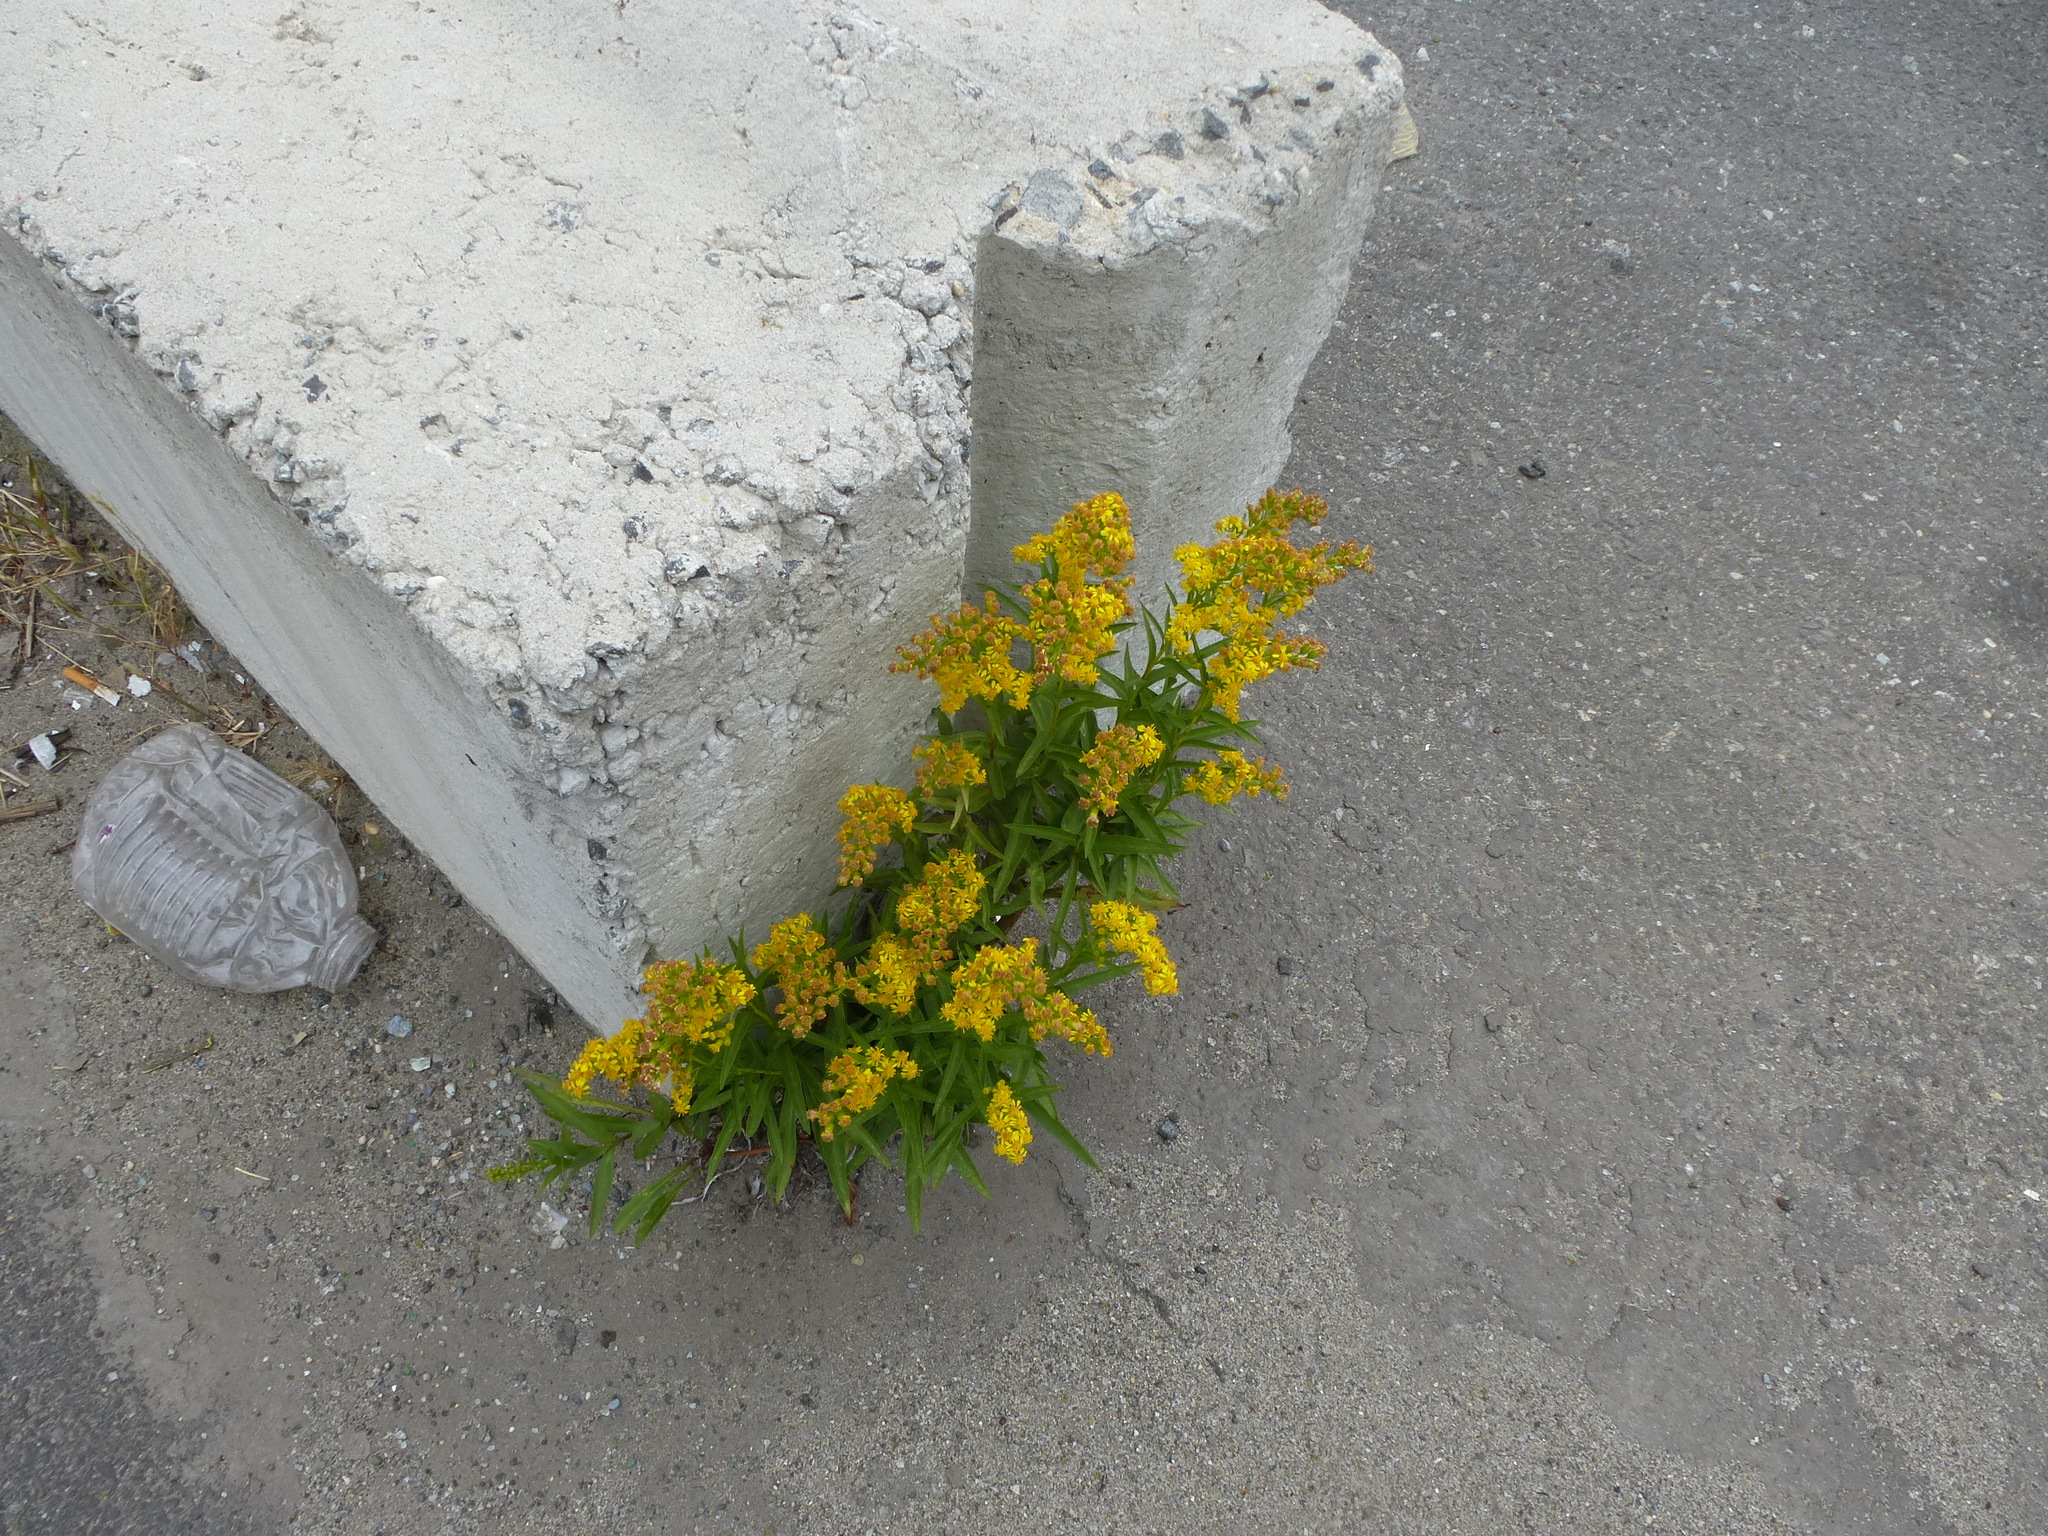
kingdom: Plantae
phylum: Tracheophyta
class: Magnoliopsida
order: Asterales
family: Asteraceae
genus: Solidago
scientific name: Solidago sempervirens
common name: Salt-marsh goldenrod
